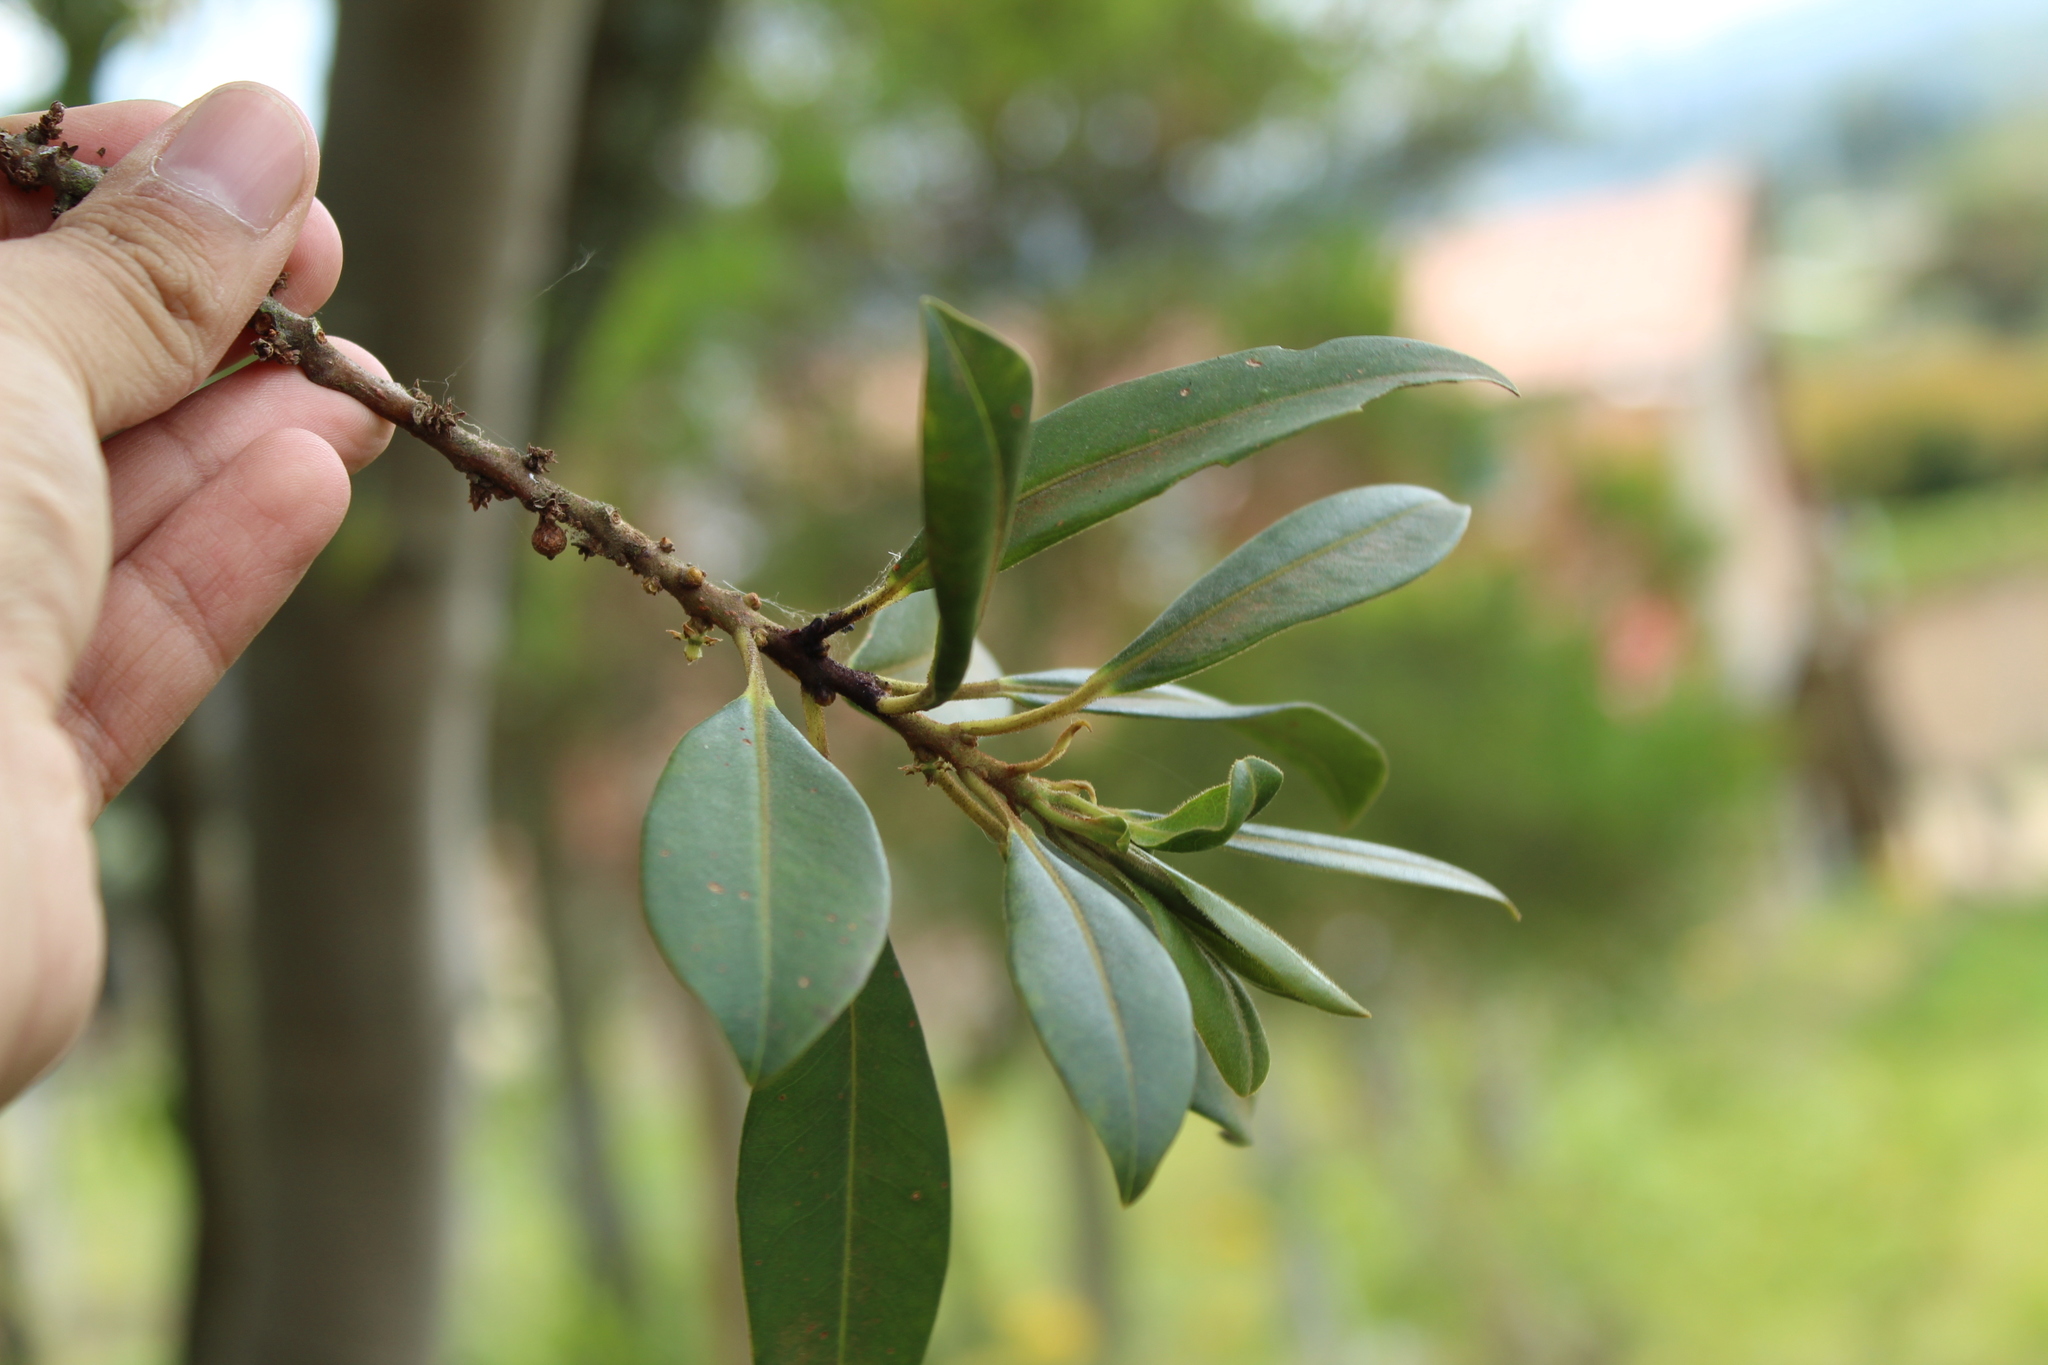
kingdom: Plantae
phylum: Tracheophyta
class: Magnoliopsida
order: Ericales
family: Primulaceae
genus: Myrsine
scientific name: Myrsine coriacea
